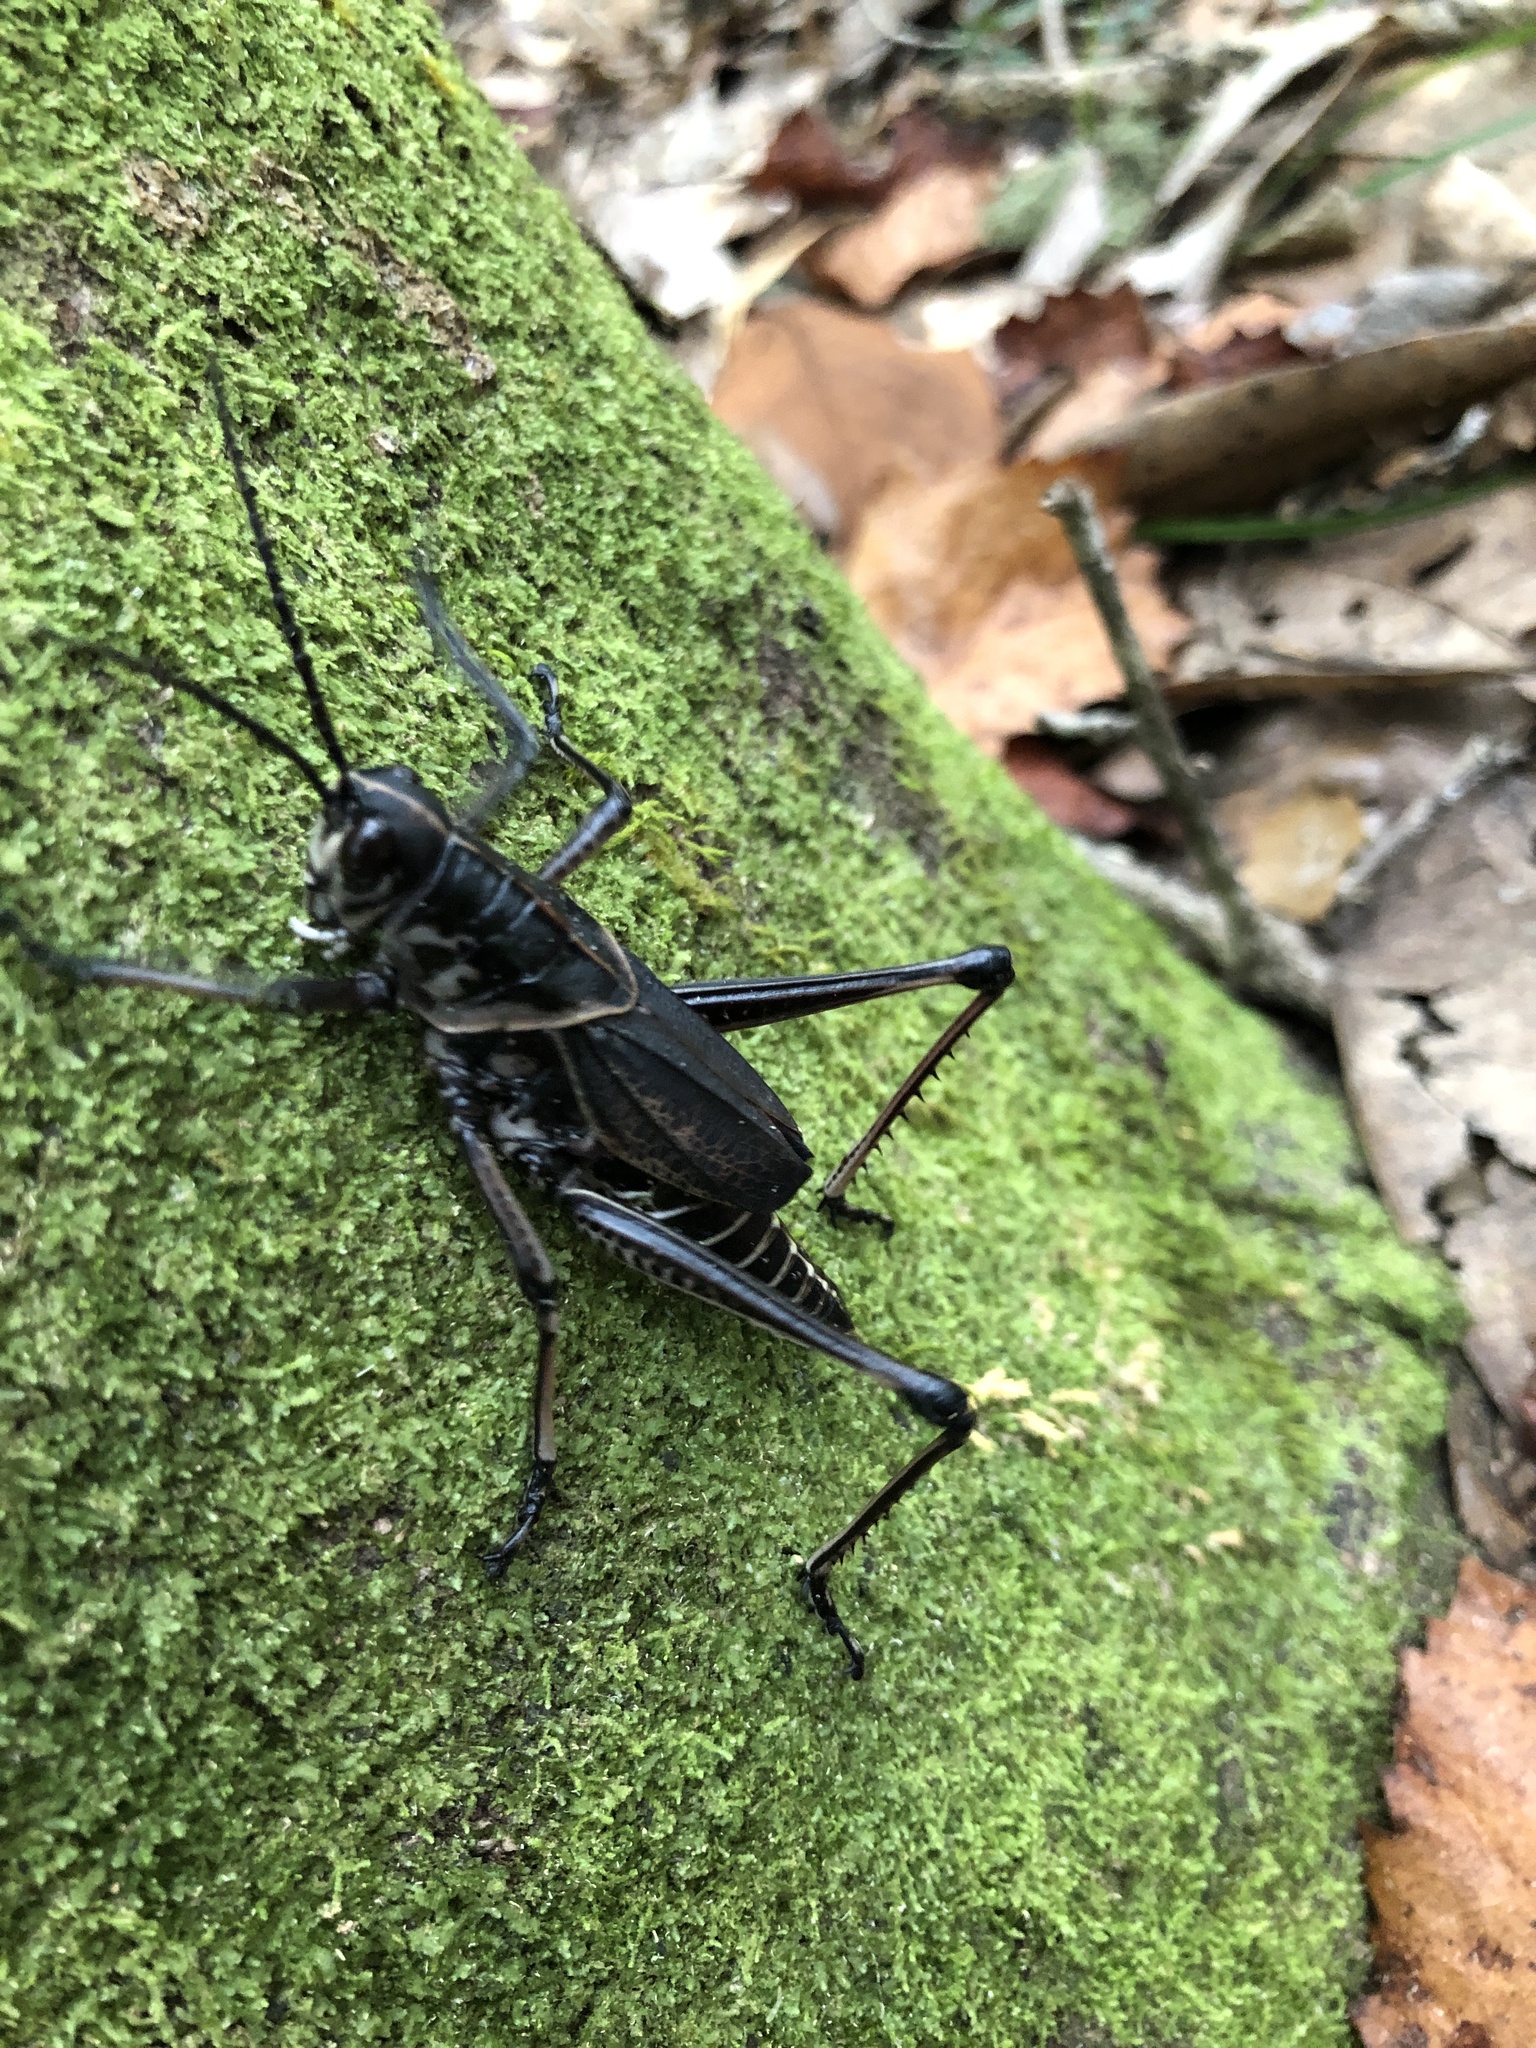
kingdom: Animalia
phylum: Arthropoda
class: Insecta
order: Orthoptera
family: Romaleidae
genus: Romalea
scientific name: Romalea microptera
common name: Eastern lubber grasshopper
